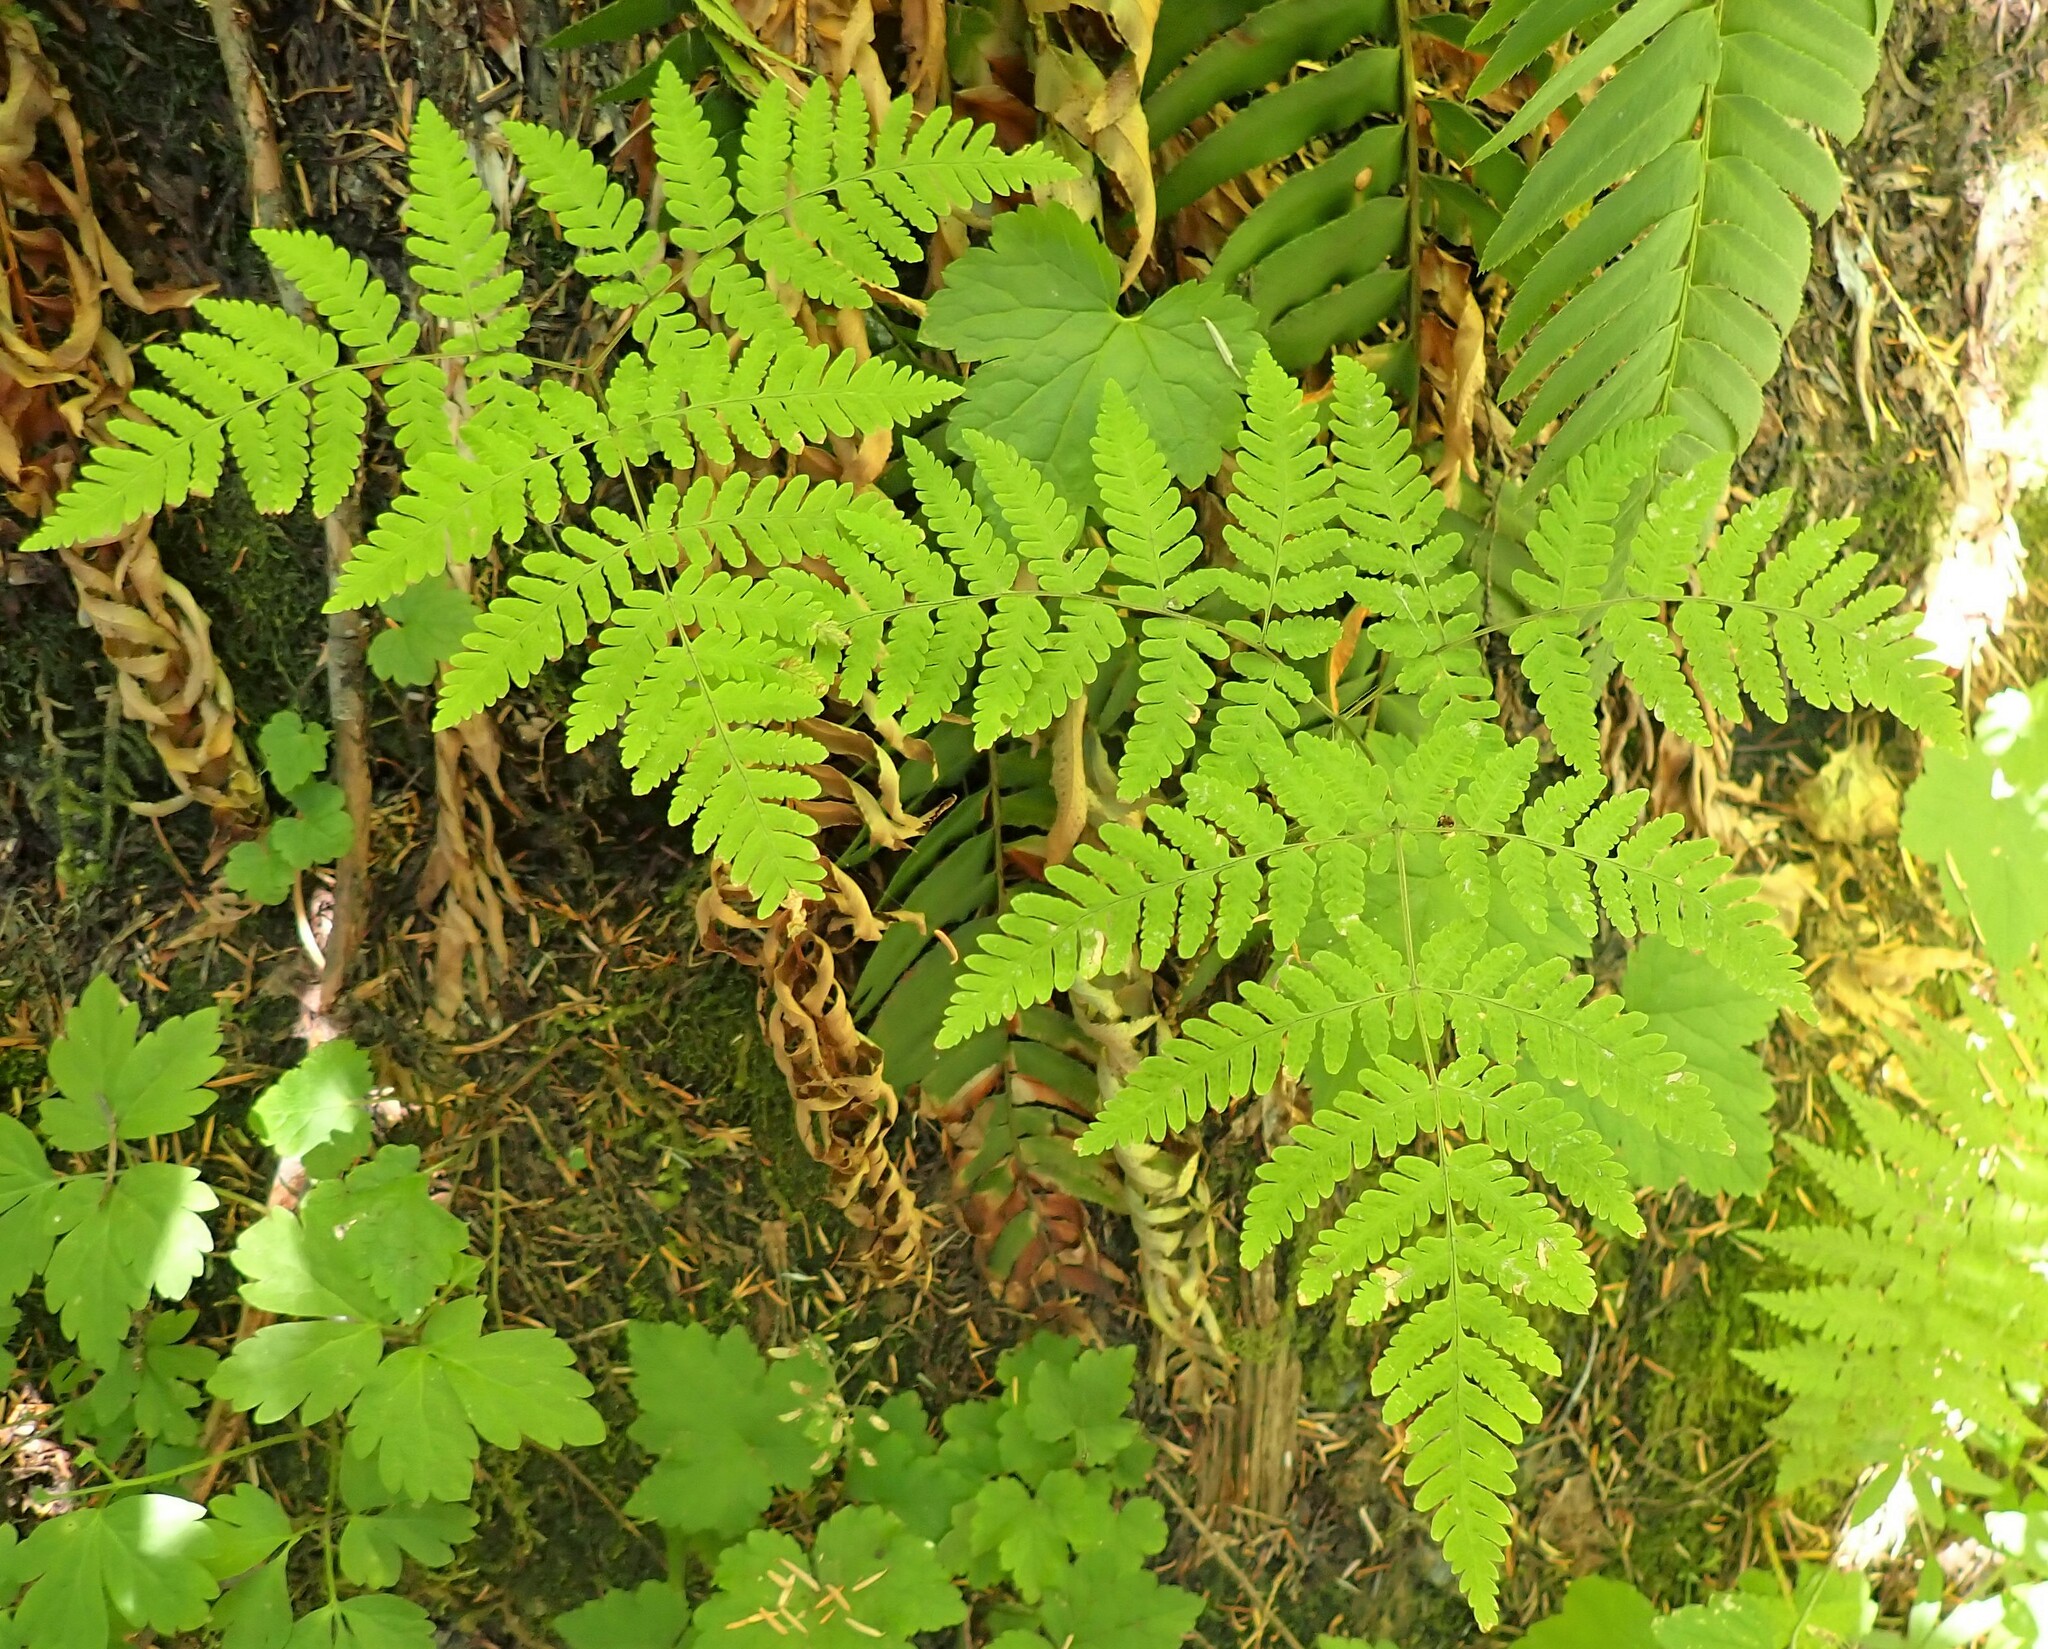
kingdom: Plantae
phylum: Tracheophyta
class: Polypodiopsida
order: Polypodiales
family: Cystopteridaceae
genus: Gymnocarpium
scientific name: Gymnocarpium disjunctum
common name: Western oak fern
